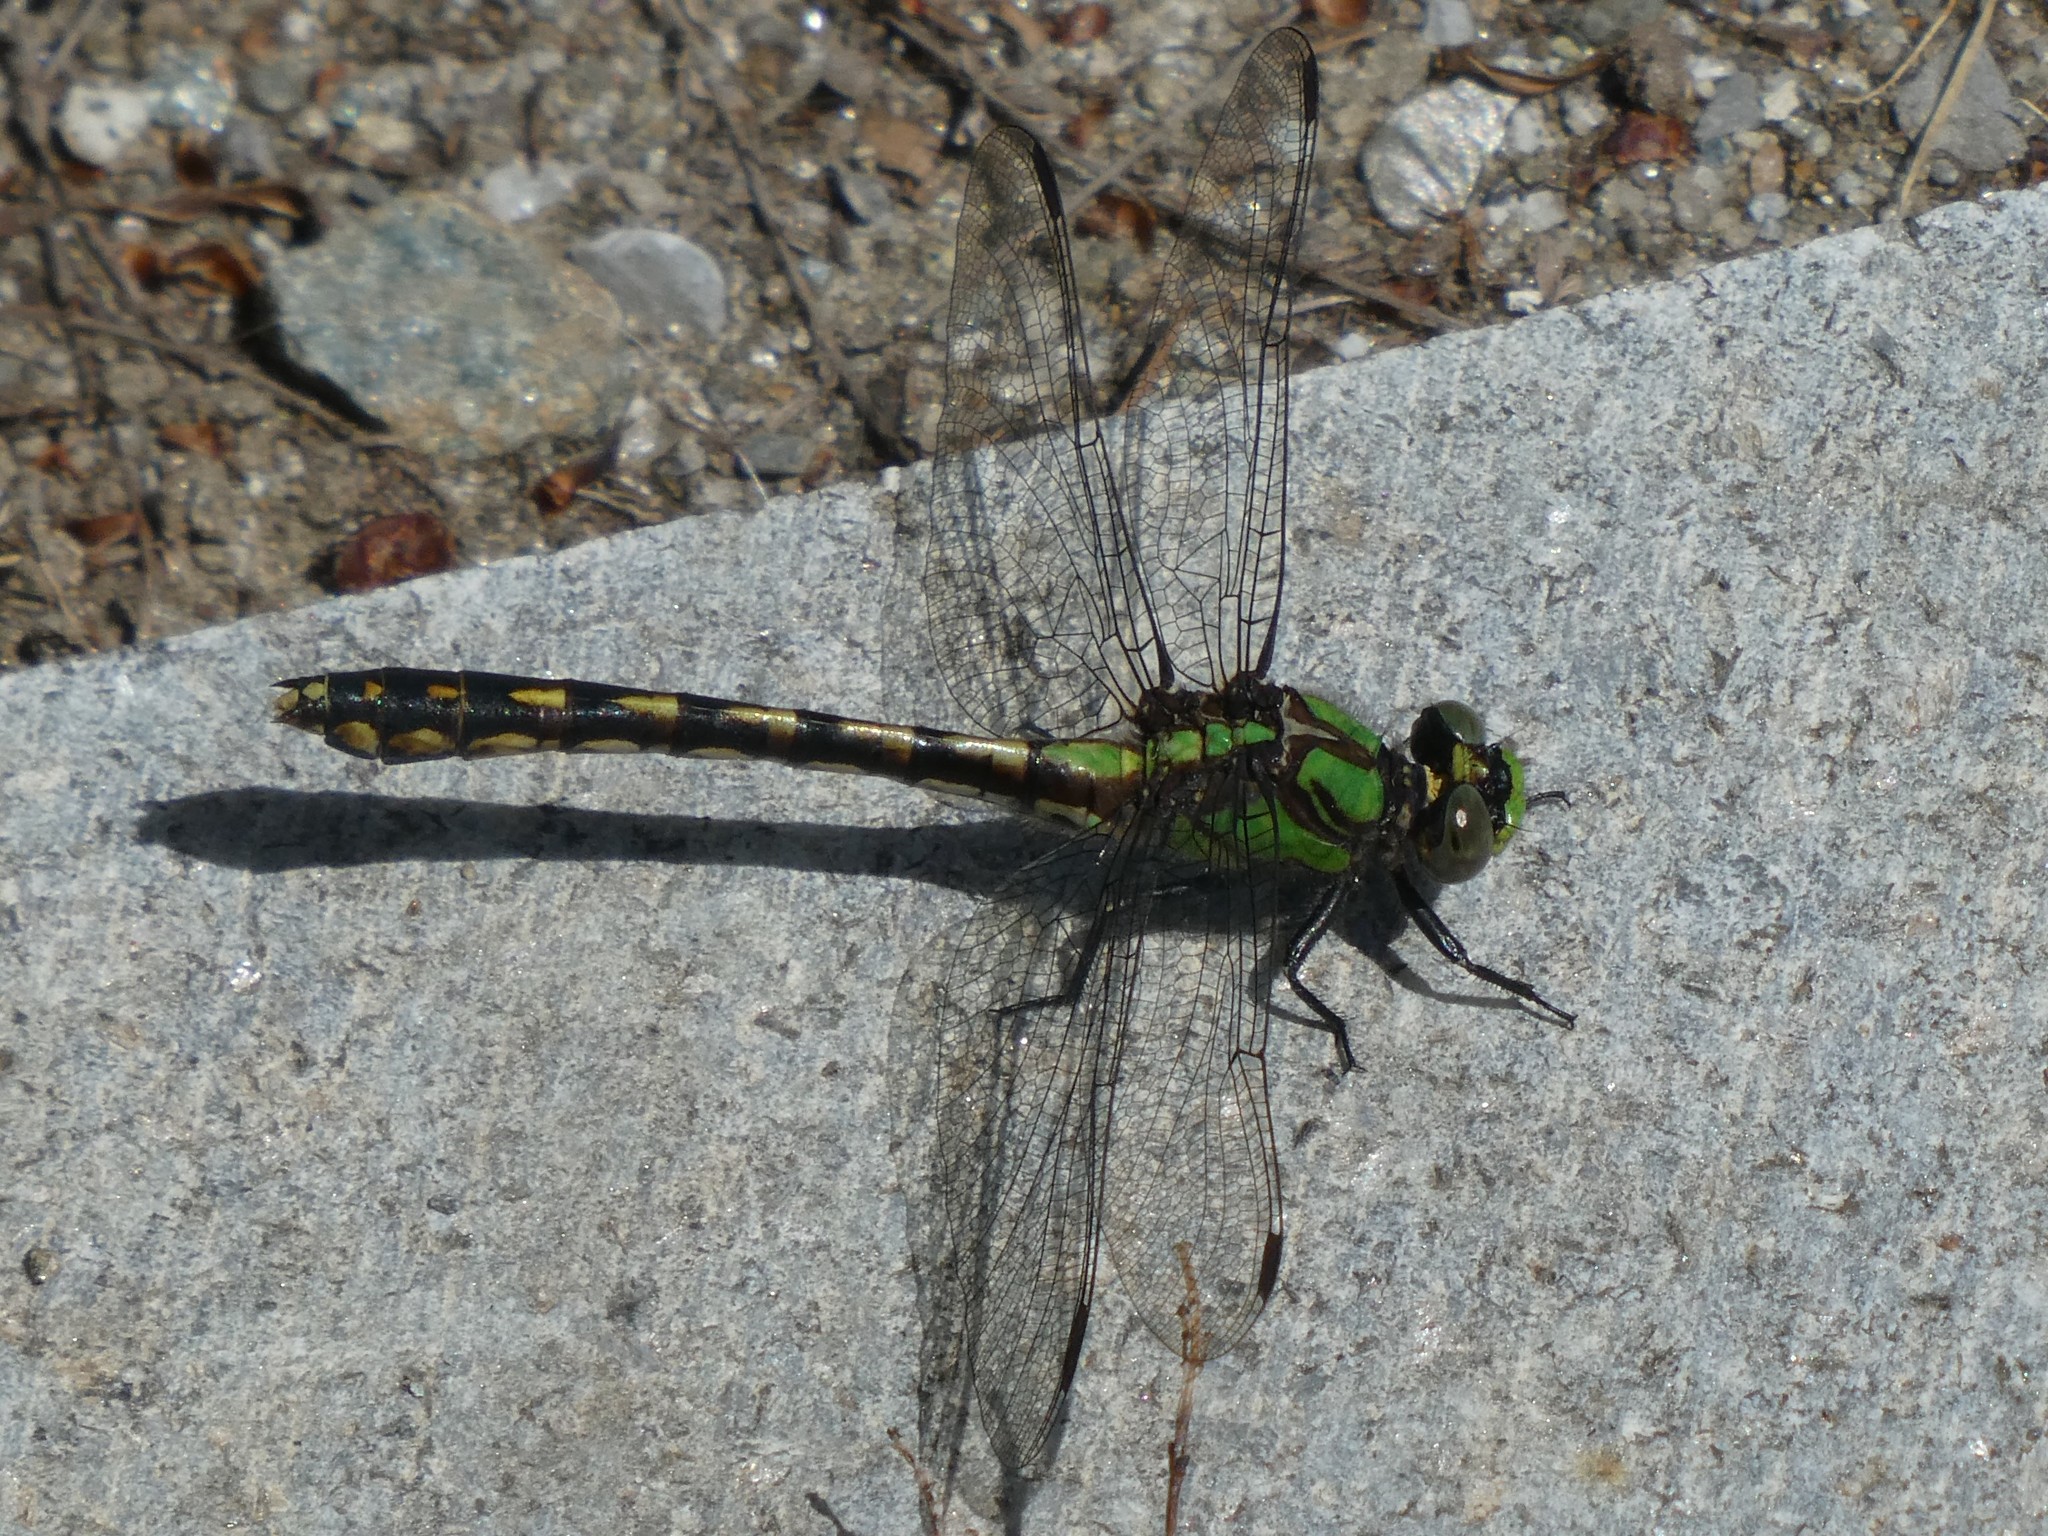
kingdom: Animalia
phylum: Arthropoda
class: Insecta
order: Odonata
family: Gomphidae
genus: Ophiogomphus
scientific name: Ophiogomphus carolus
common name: Riffle snaketail
